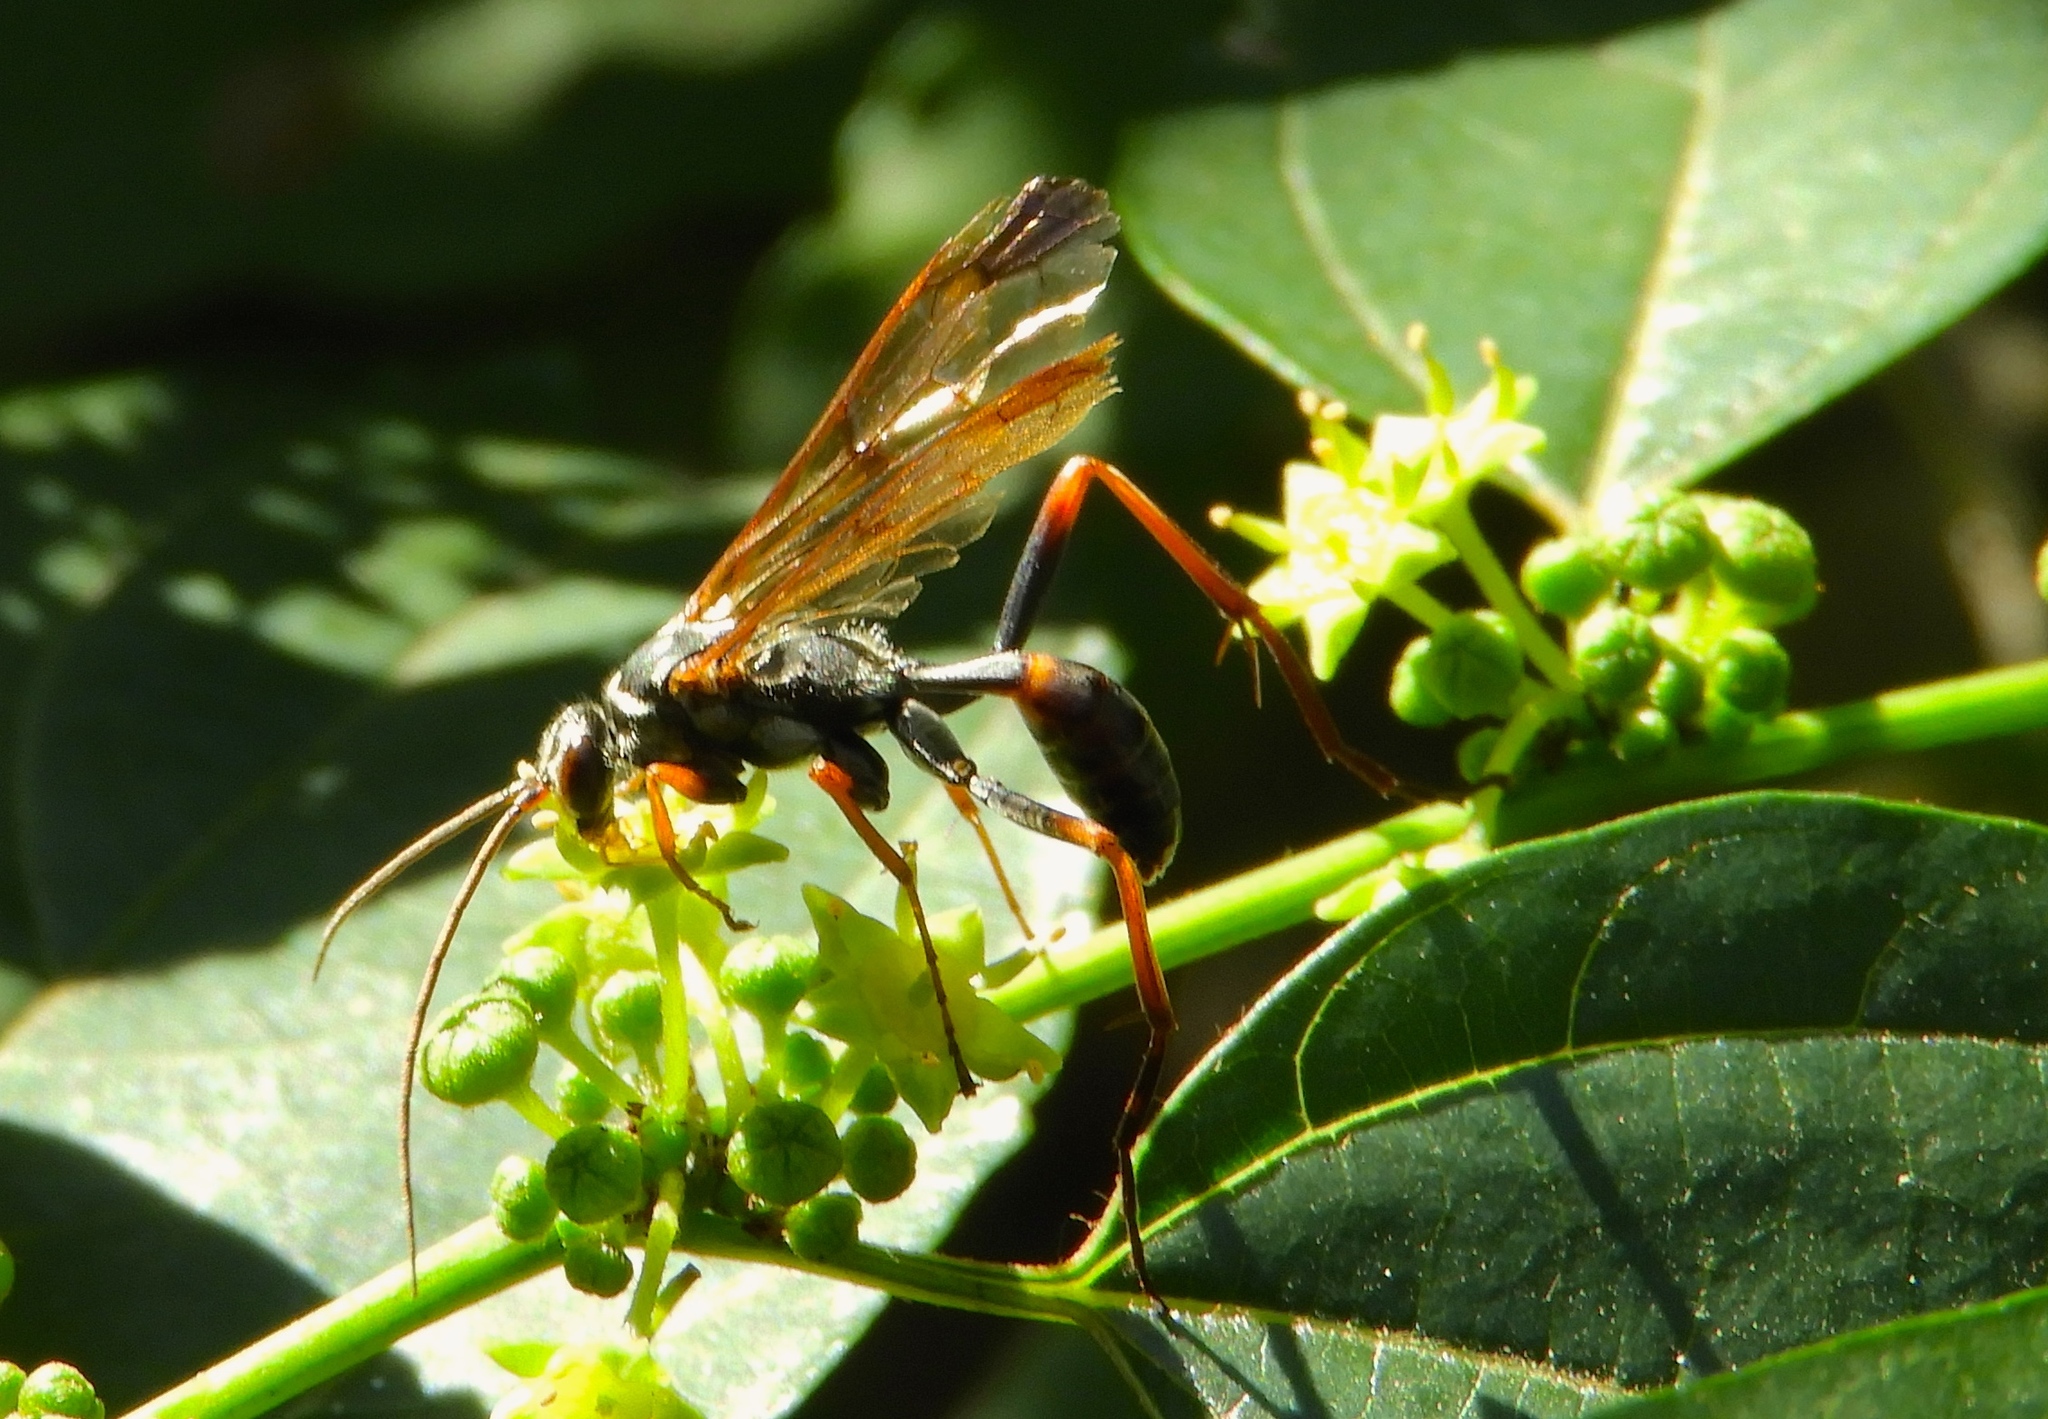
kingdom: Animalia
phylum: Arthropoda
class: Insecta
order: Hymenoptera
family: Pompilidae
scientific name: Pompilidae
